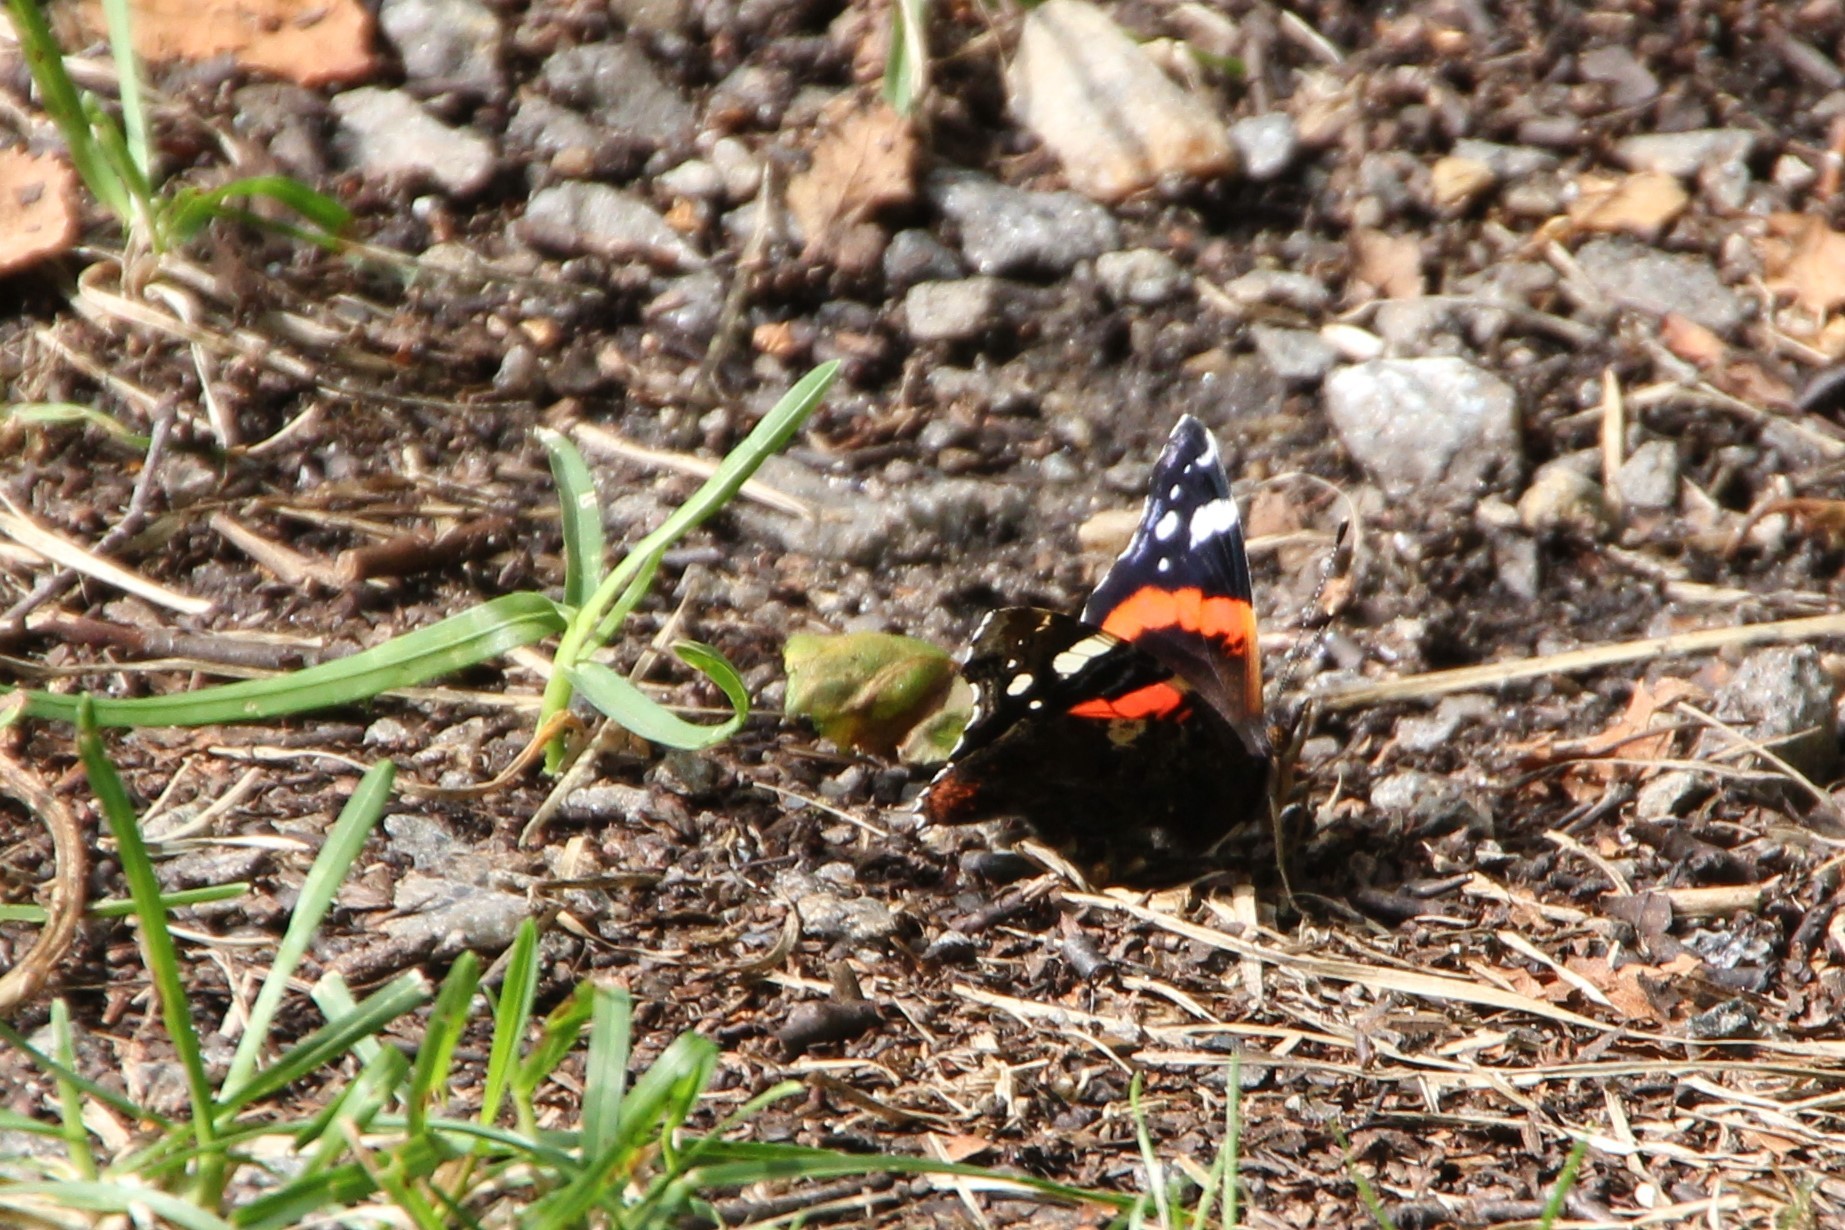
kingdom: Animalia
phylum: Arthropoda
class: Insecta
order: Lepidoptera
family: Nymphalidae
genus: Vanessa
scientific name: Vanessa atalanta
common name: Red admiral
